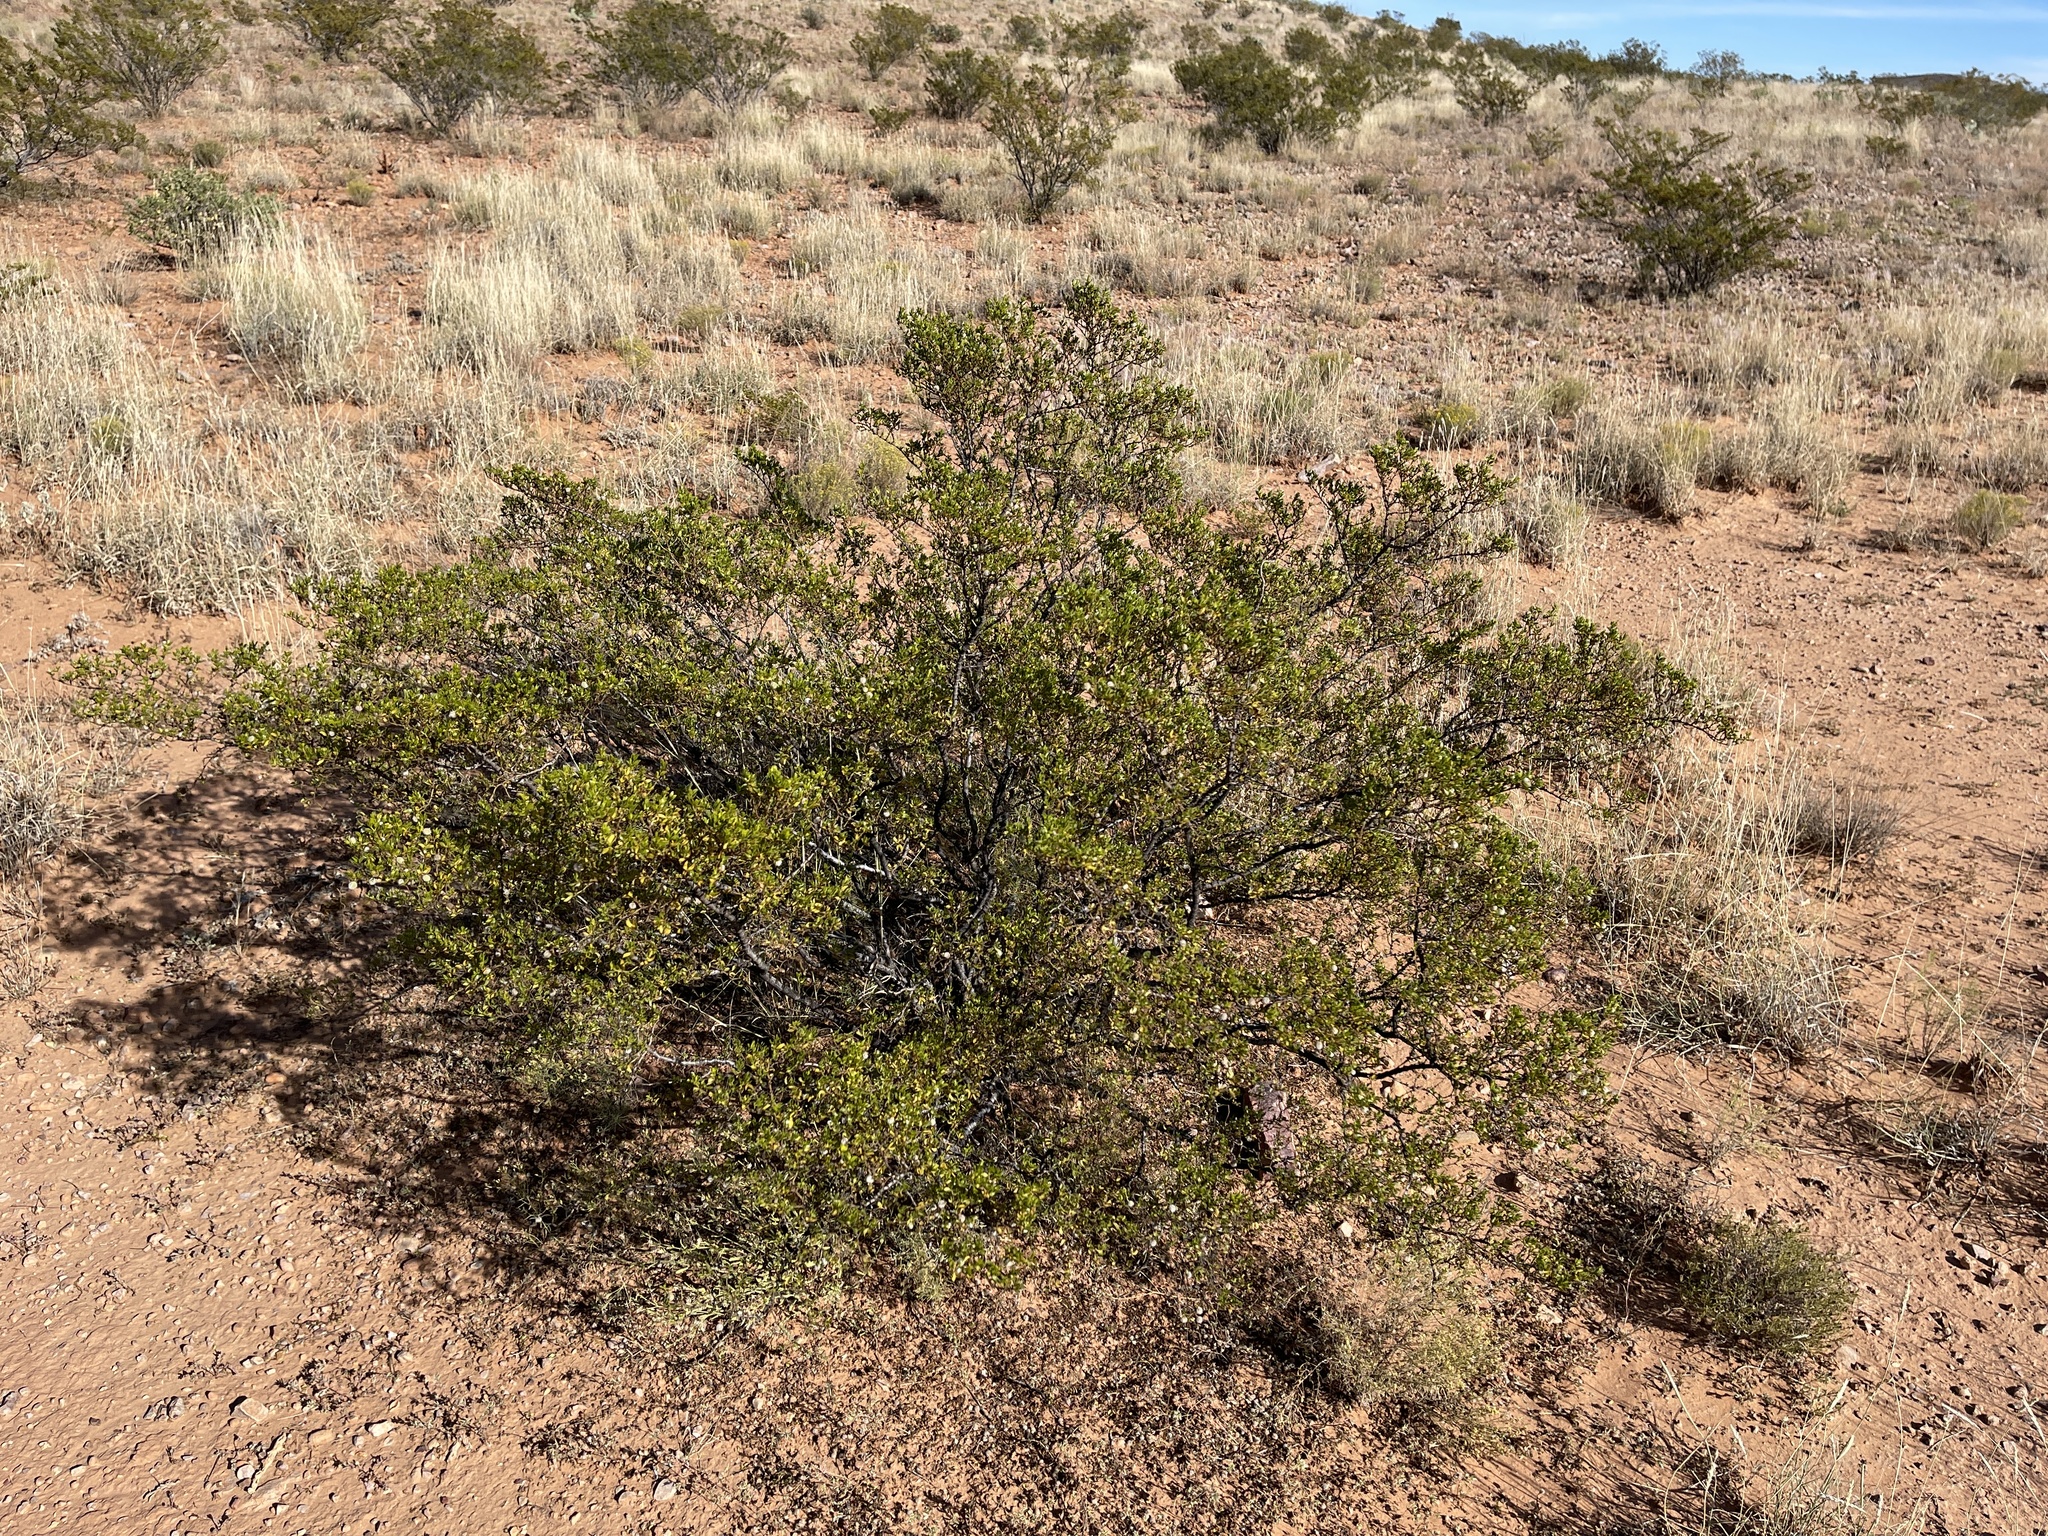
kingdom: Plantae
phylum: Tracheophyta
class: Magnoliopsida
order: Zygophyllales
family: Zygophyllaceae
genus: Larrea
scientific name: Larrea tridentata
